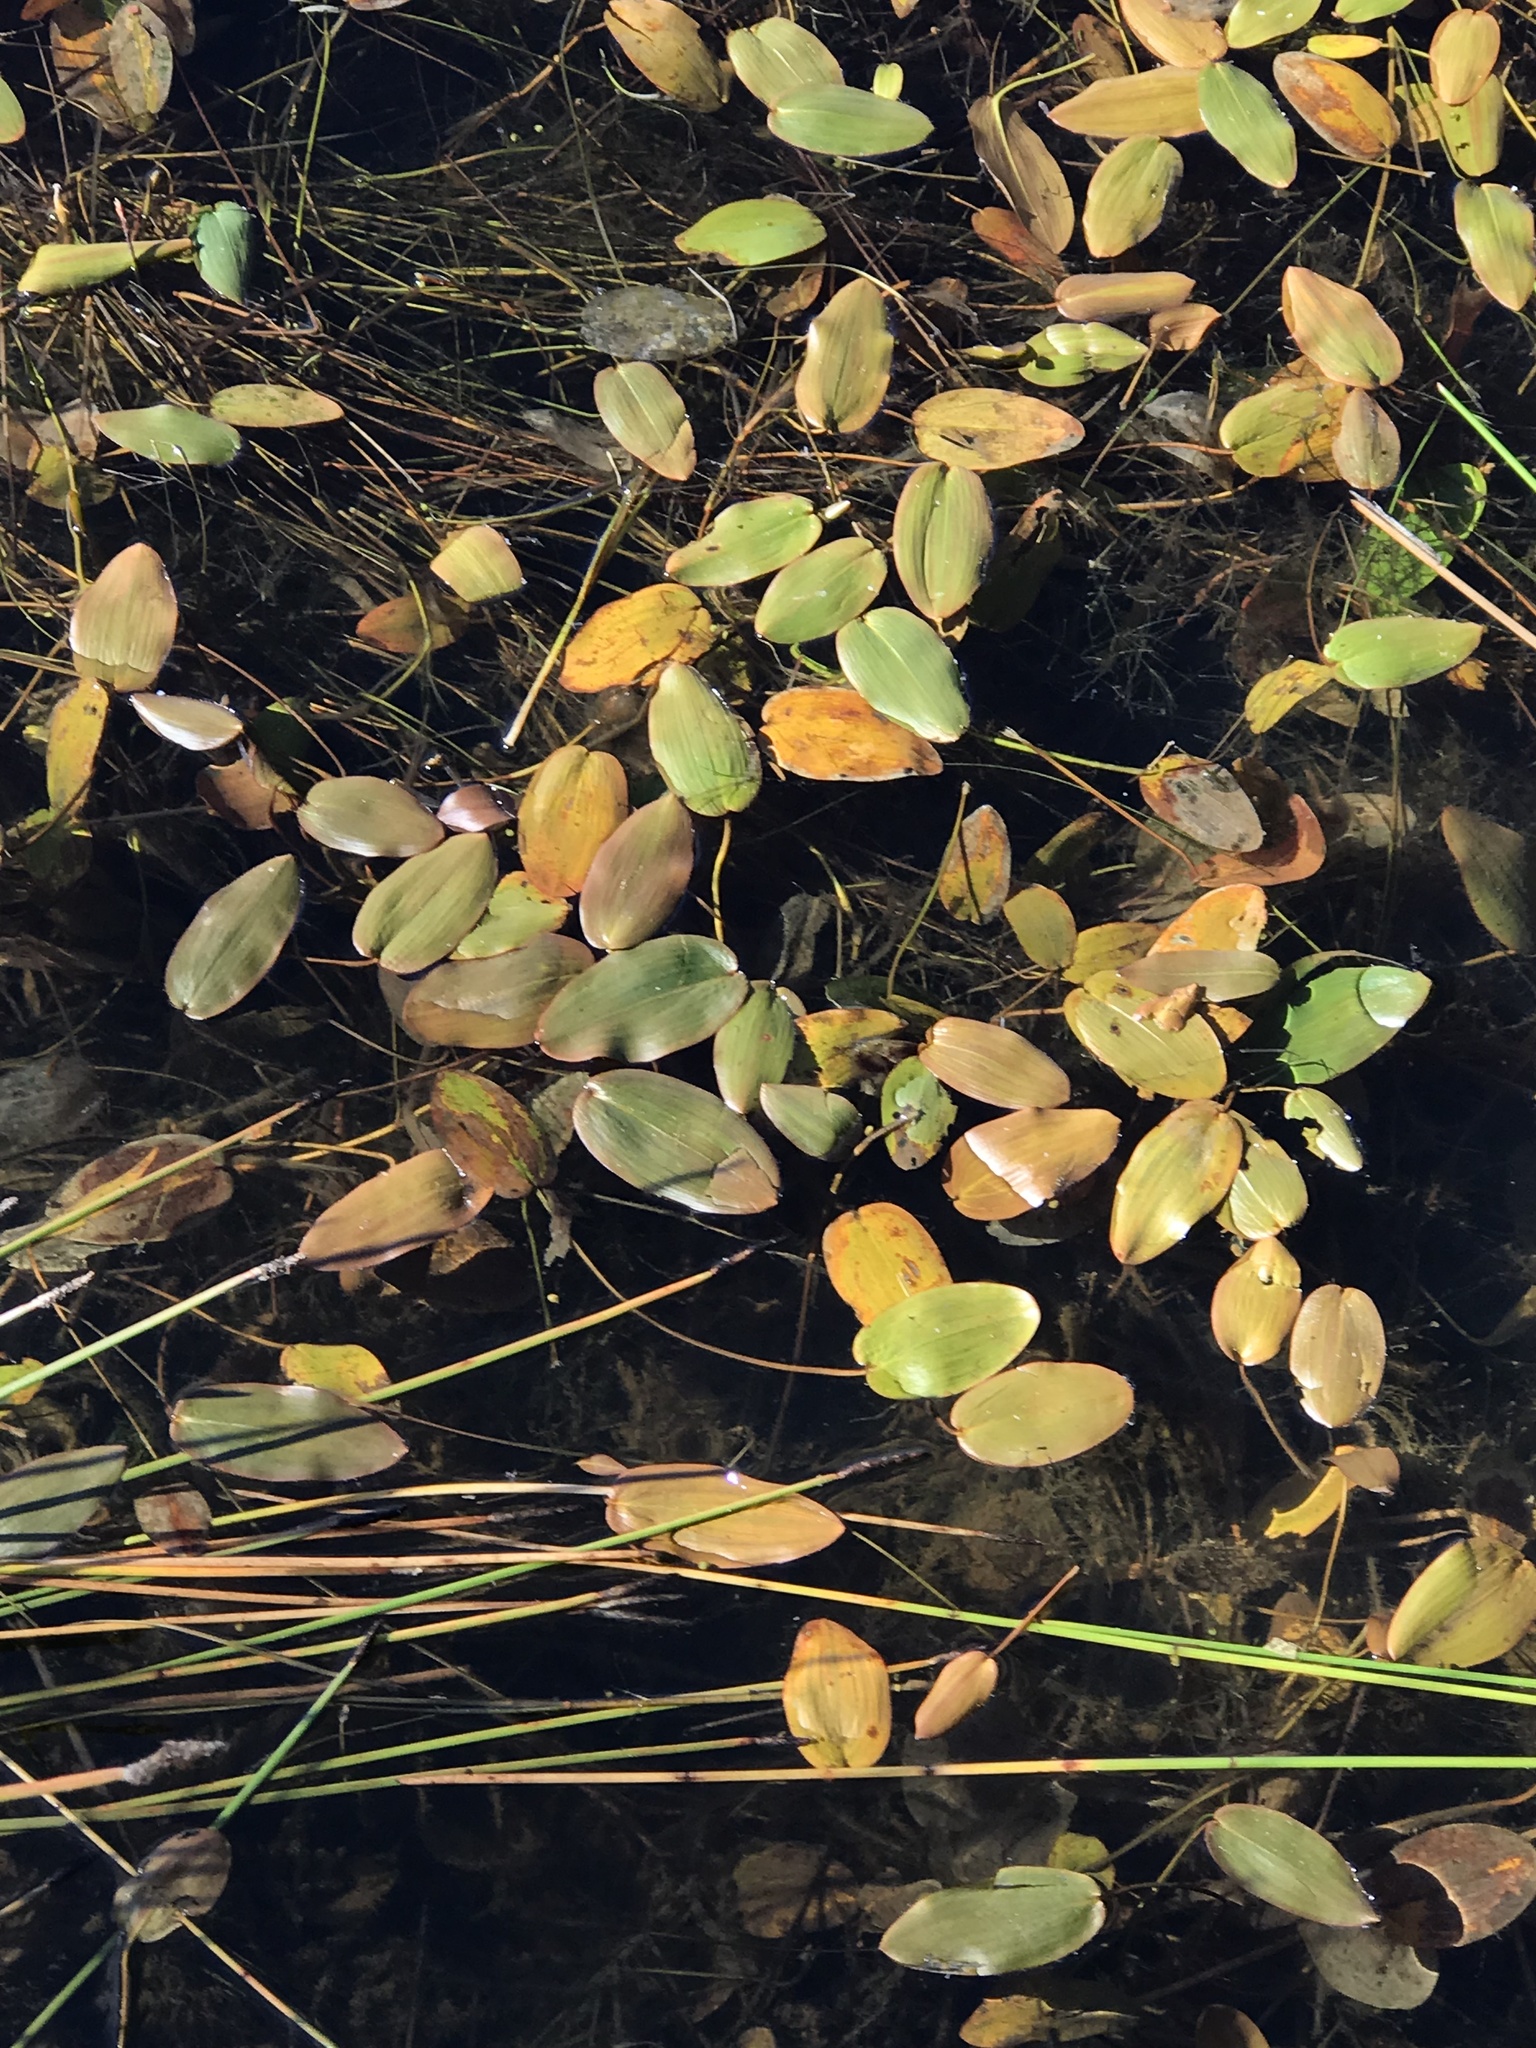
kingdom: Plantae
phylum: Tracheophyta
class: Liliopsida
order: Alismatales
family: Potamogetonaceae
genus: Potamogeton
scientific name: Potamogeton natans
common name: Broad-leaved pondweed
